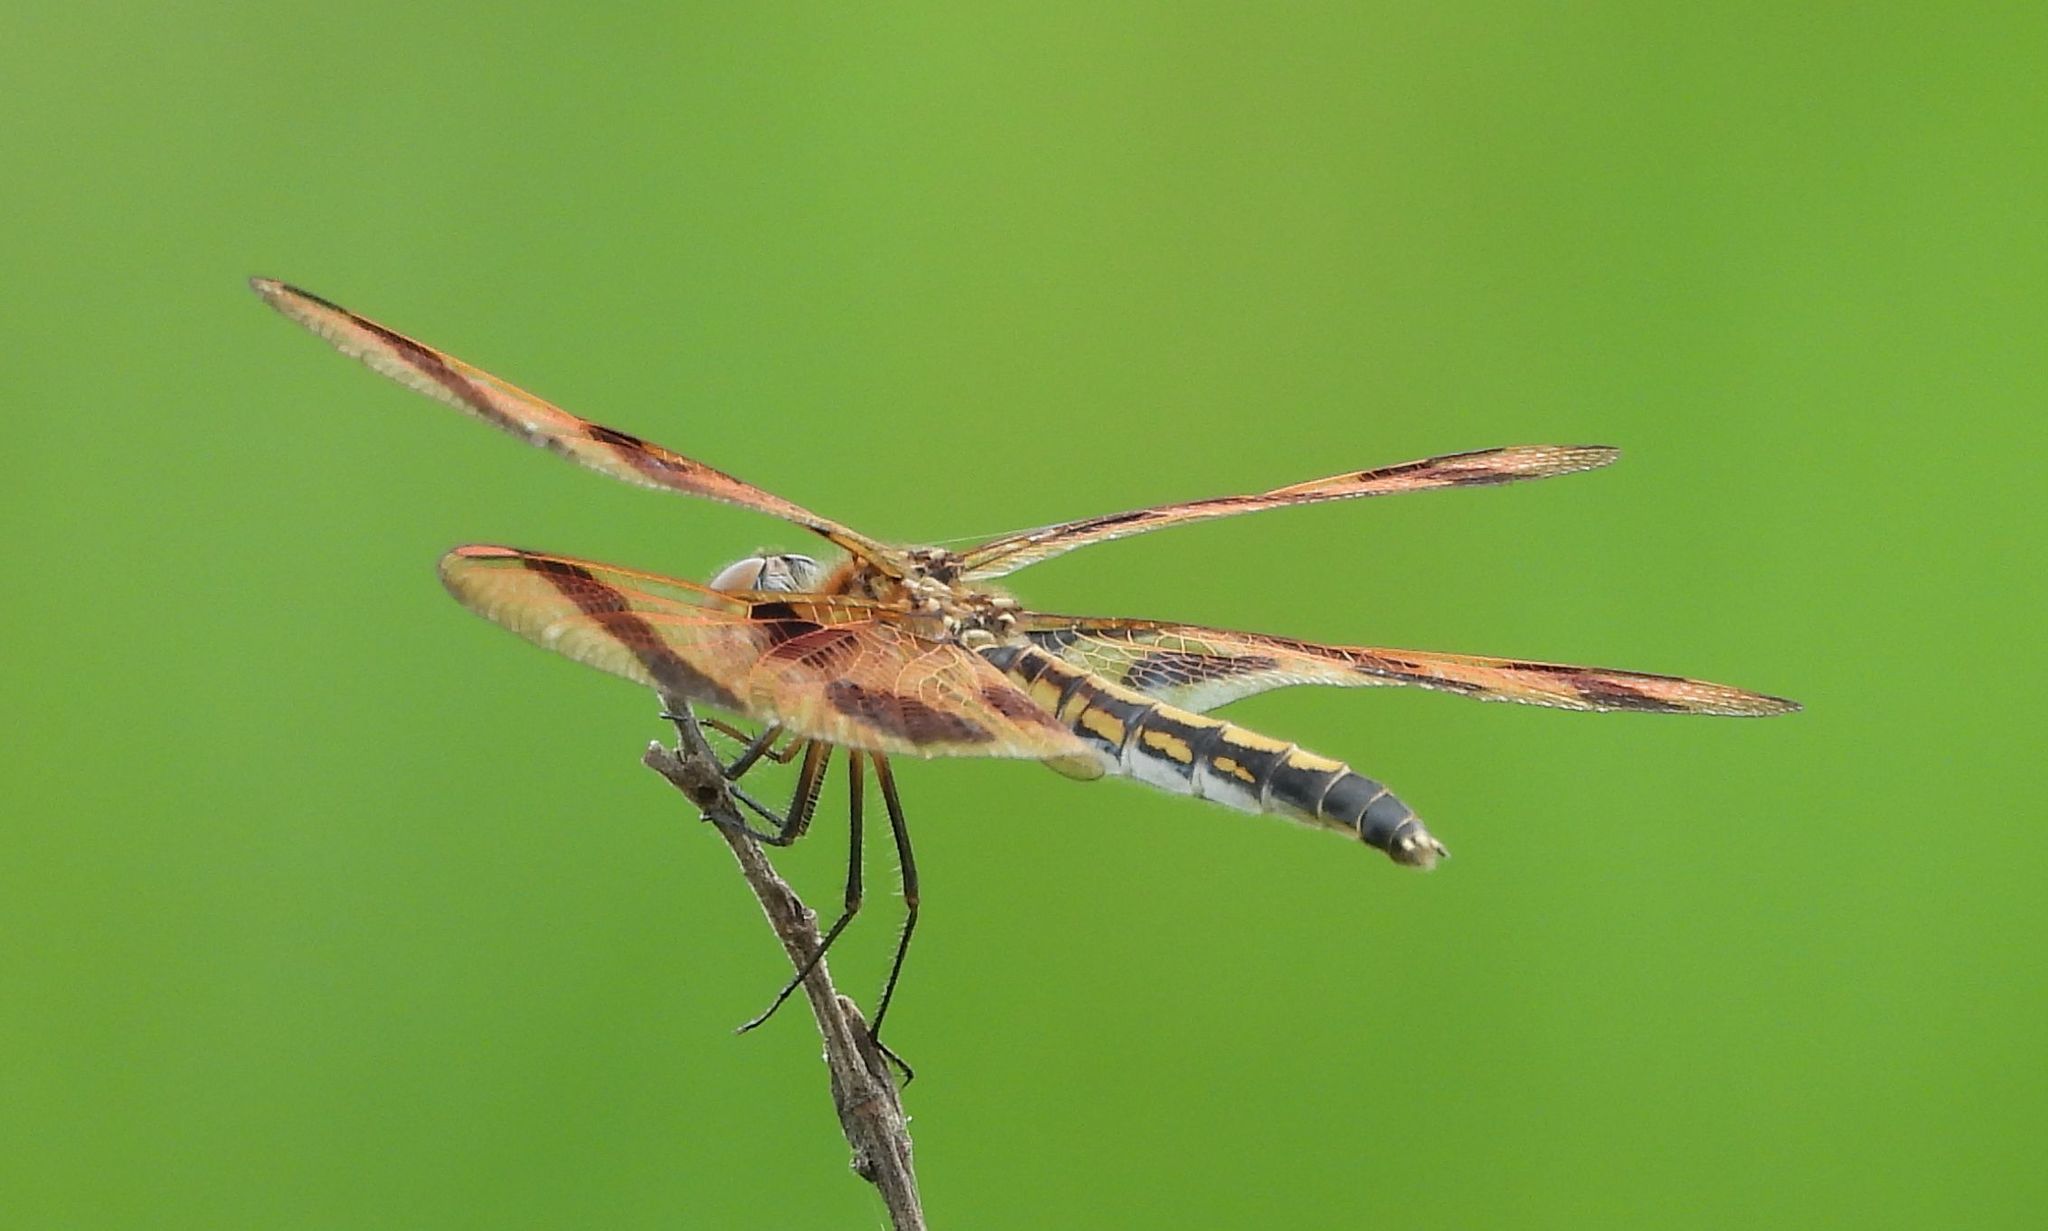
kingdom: Animalia
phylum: Arthropoda
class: Insecta
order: Odonata
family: Libellulidae
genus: Celithemis
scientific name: Celithemis eponina
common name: Halloween pennant
